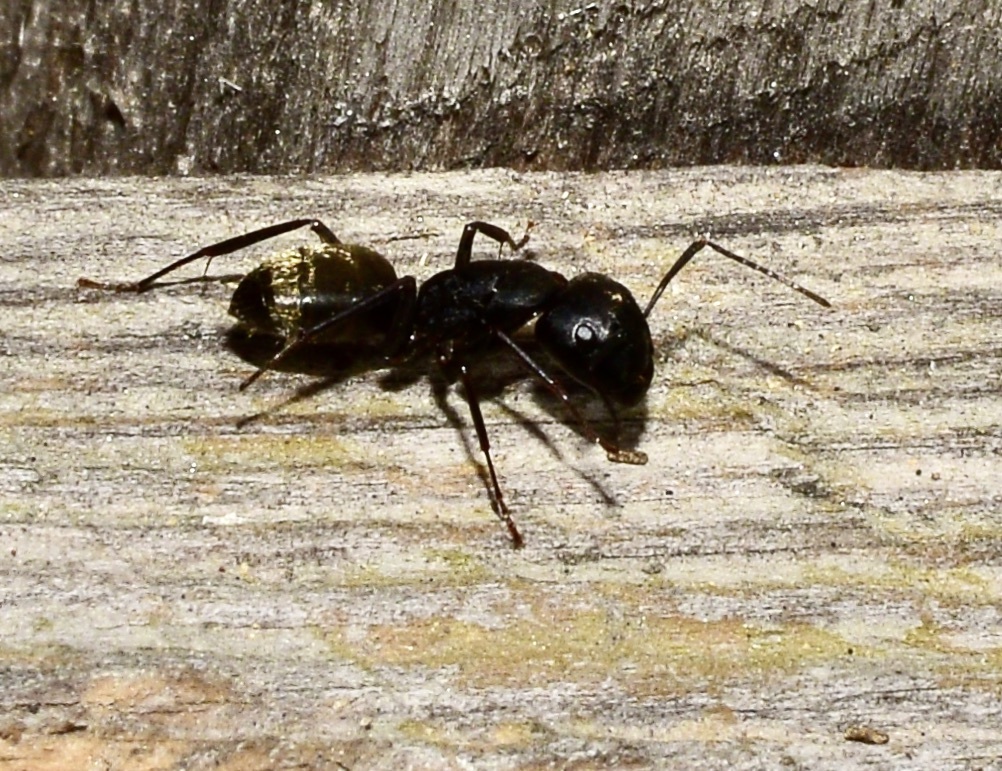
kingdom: Animalia
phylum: Arthropoda
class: Insecta
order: Hymenoptera
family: Formicidae
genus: Camponotus
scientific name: Camponotus pennsylvanicus
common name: Black carpenter ant
